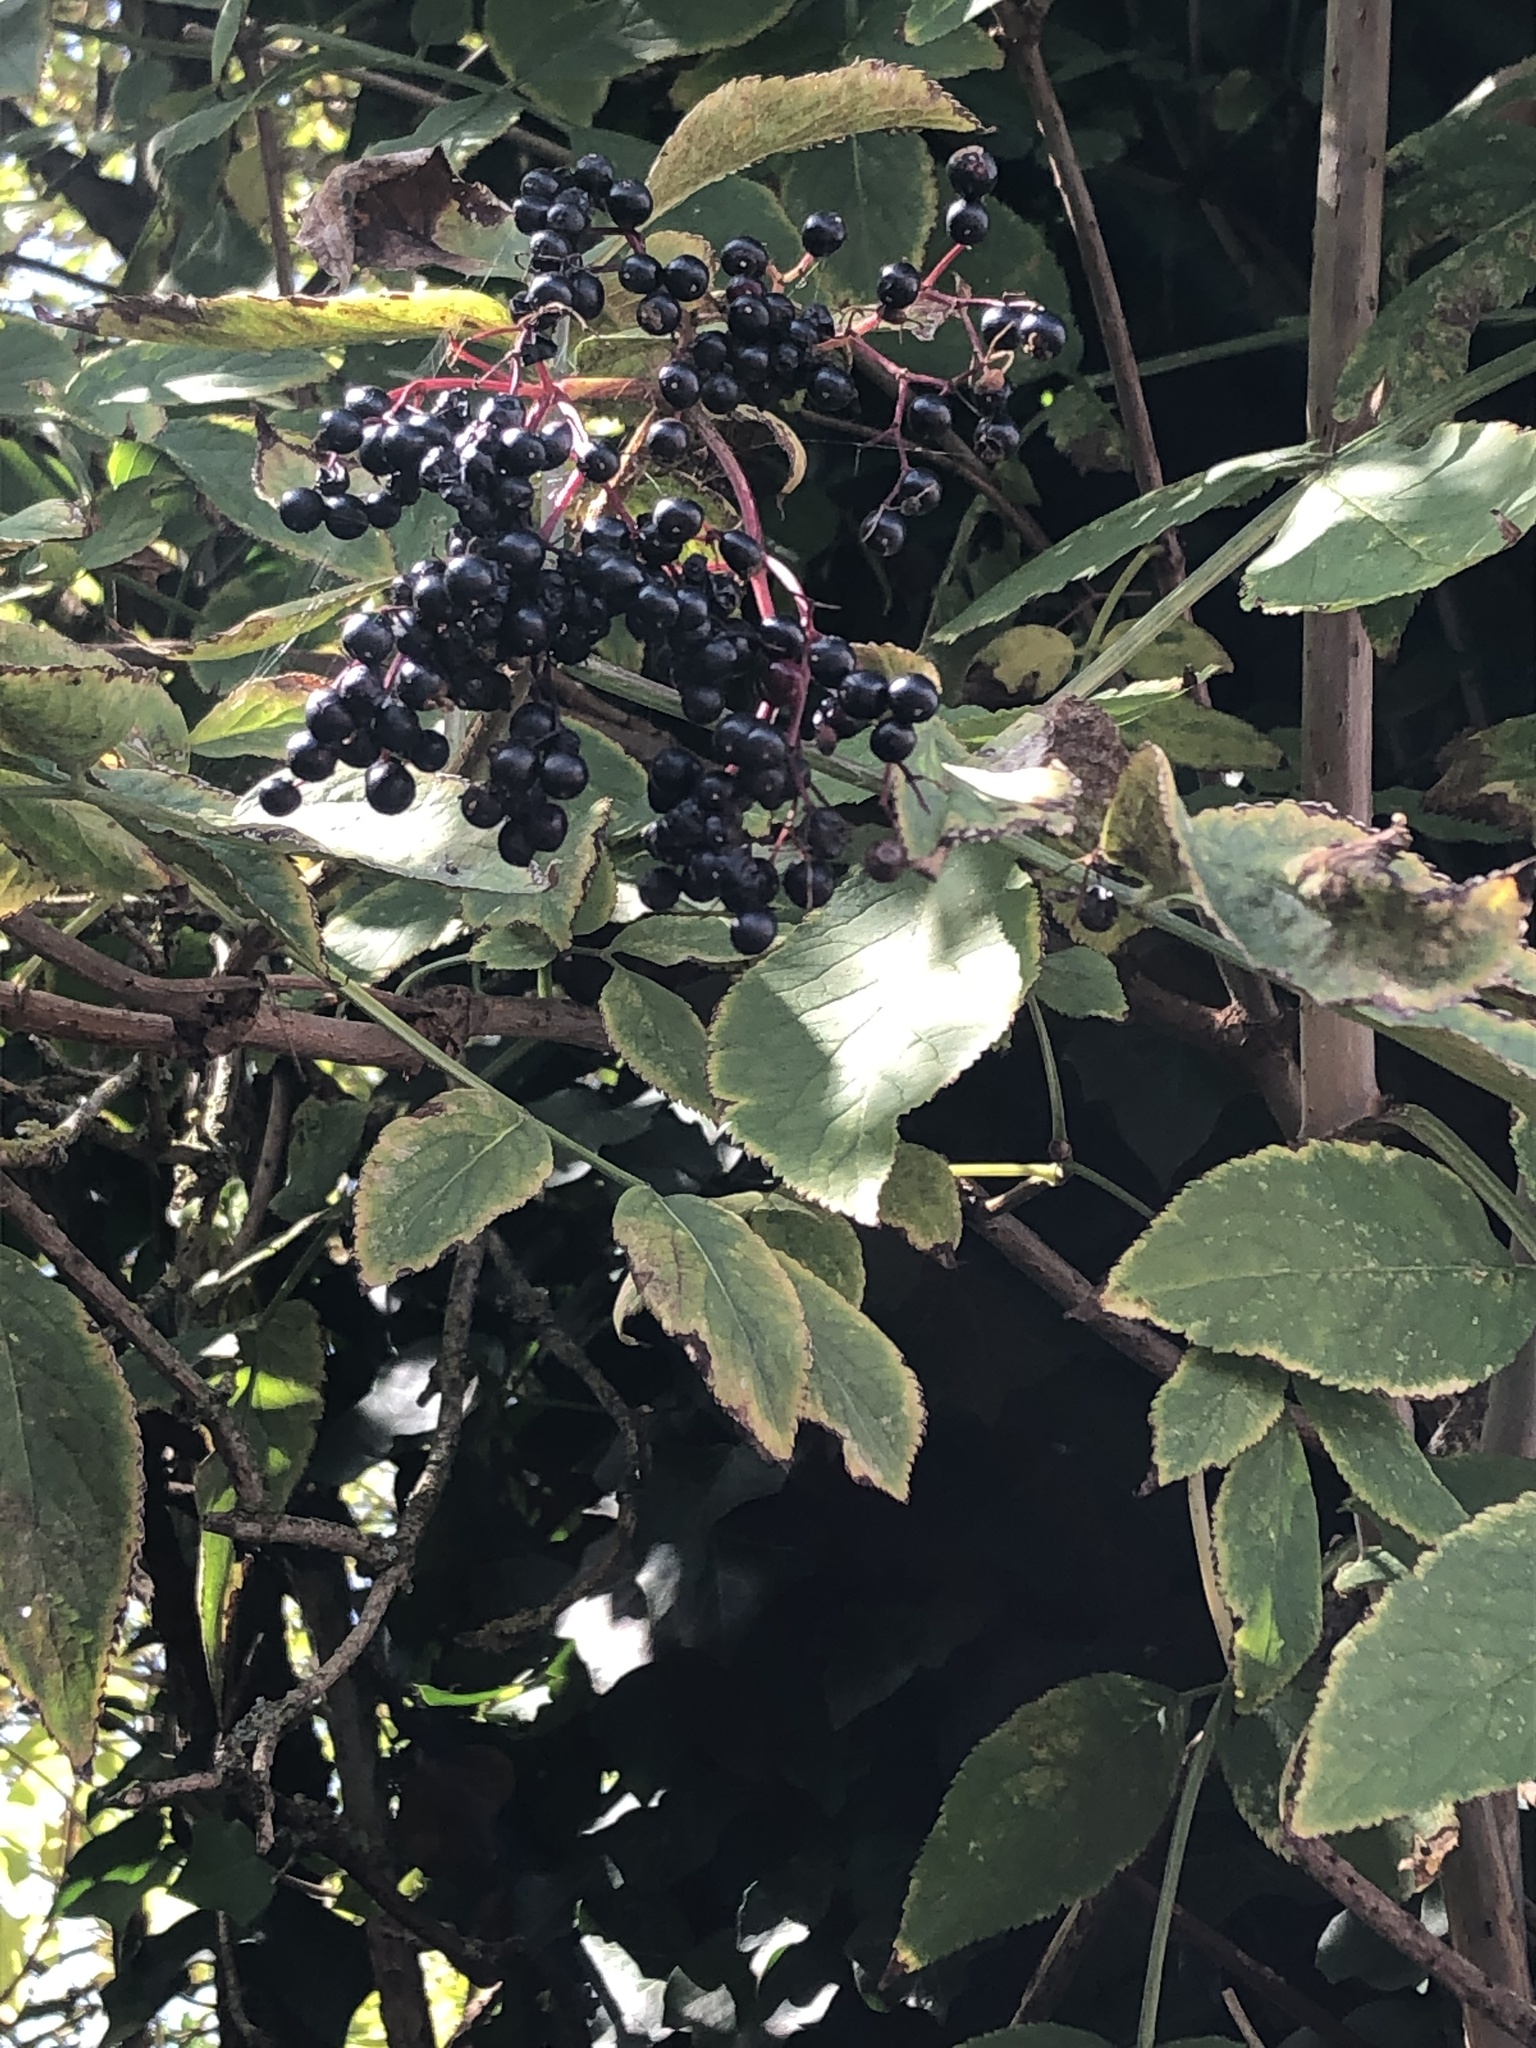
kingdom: Plantae
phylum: Tracheophyta
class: Magnoliopsida
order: Dipsacales
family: Viburnaceae
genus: Sambucus
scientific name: Sambucus nigra
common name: Elder
